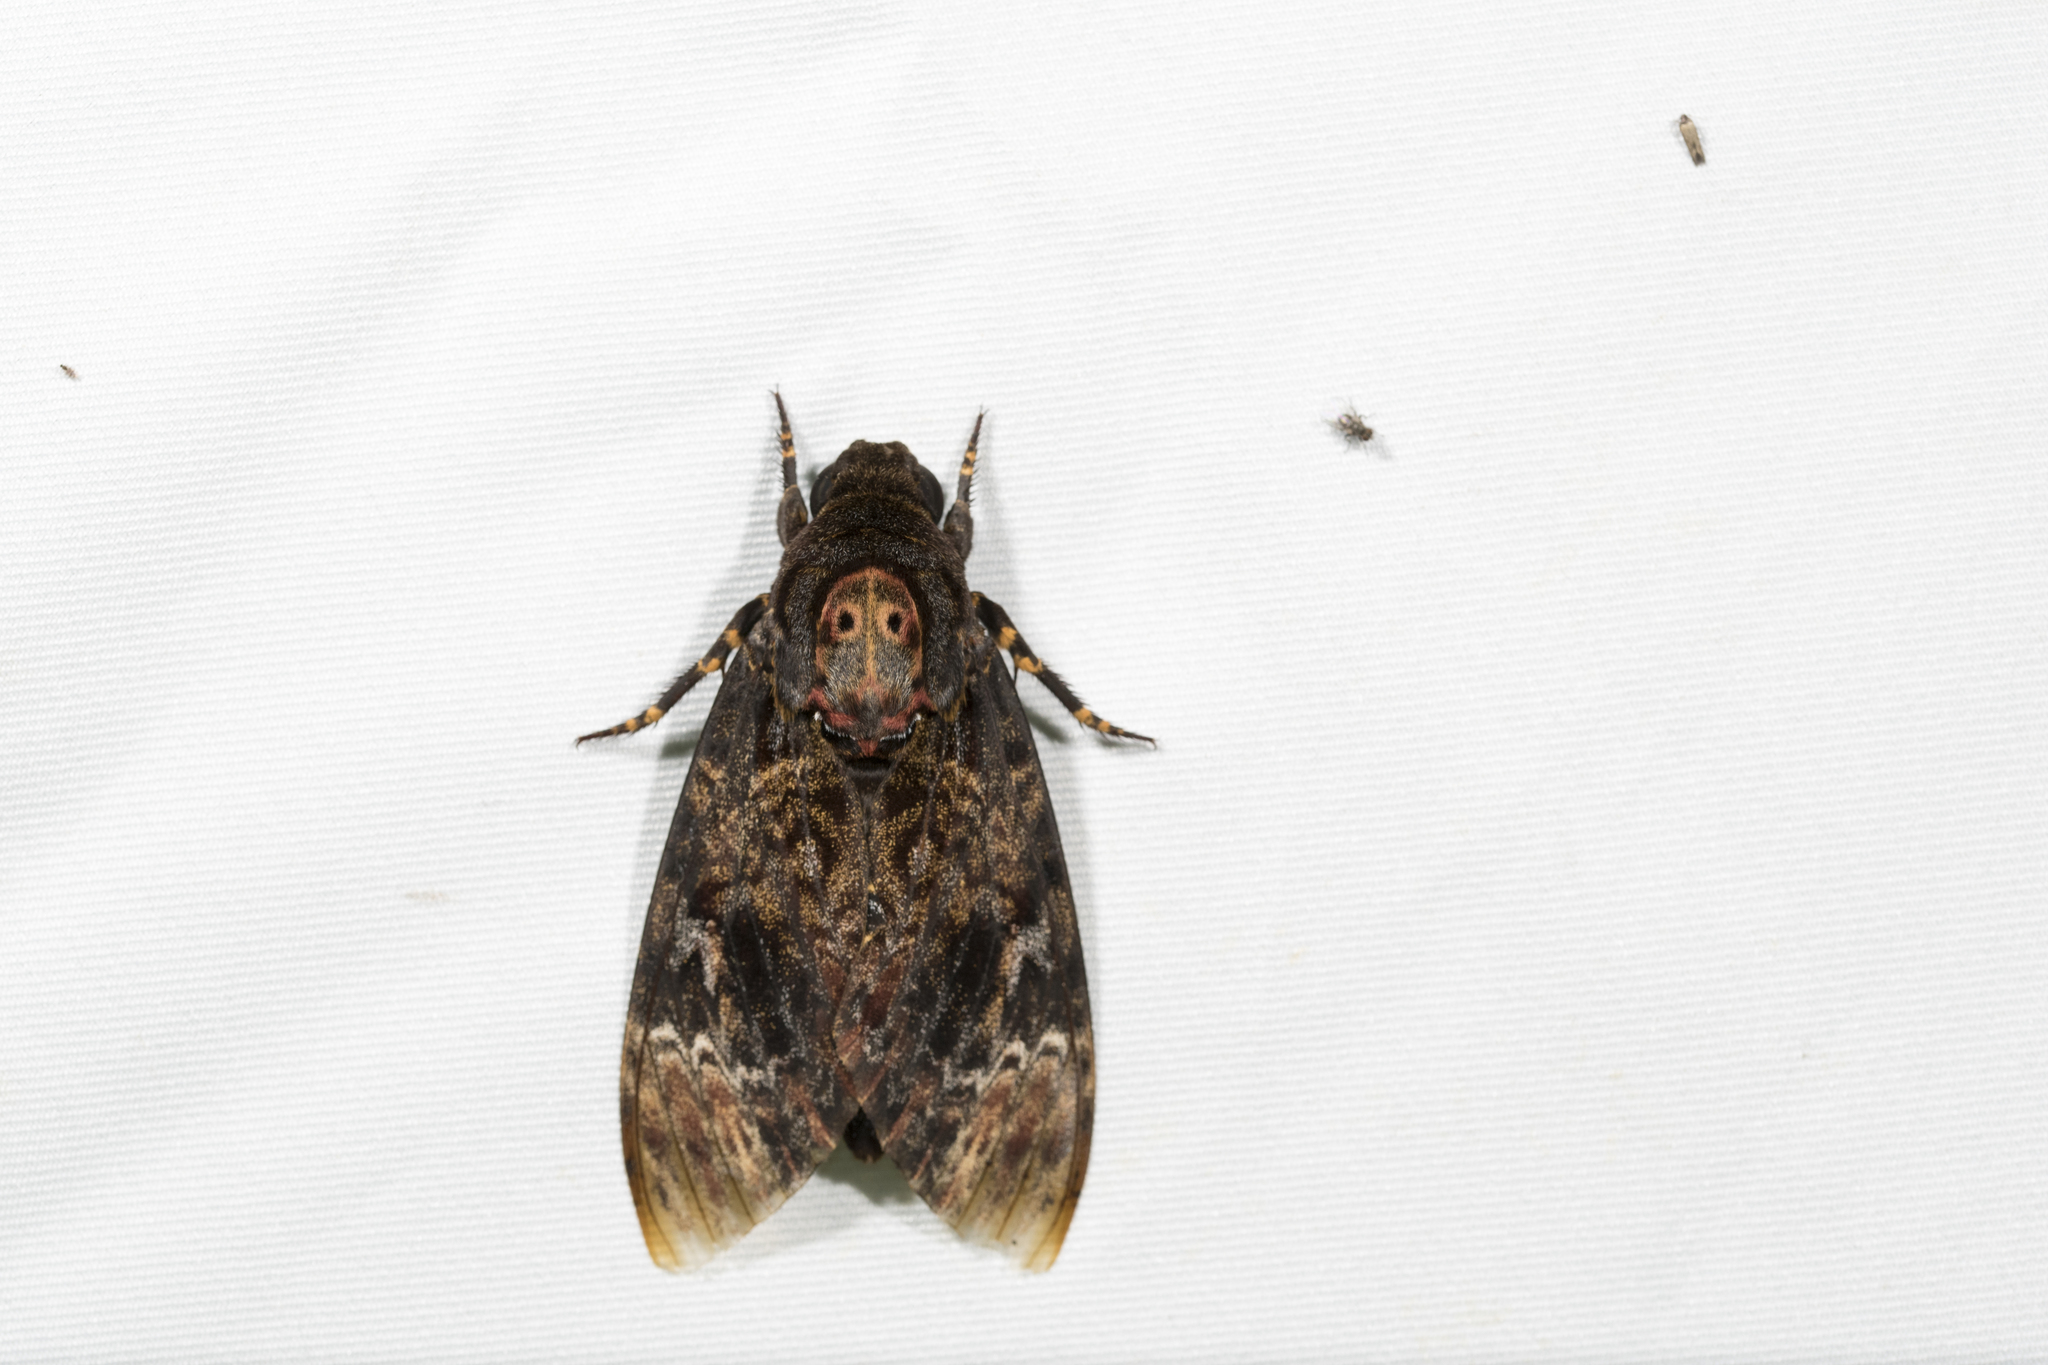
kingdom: Animalia
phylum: Arthropoda
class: Insecta
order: Lepidoptera
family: Sphingidae
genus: Acherontia
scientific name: Acherontia lachesis
